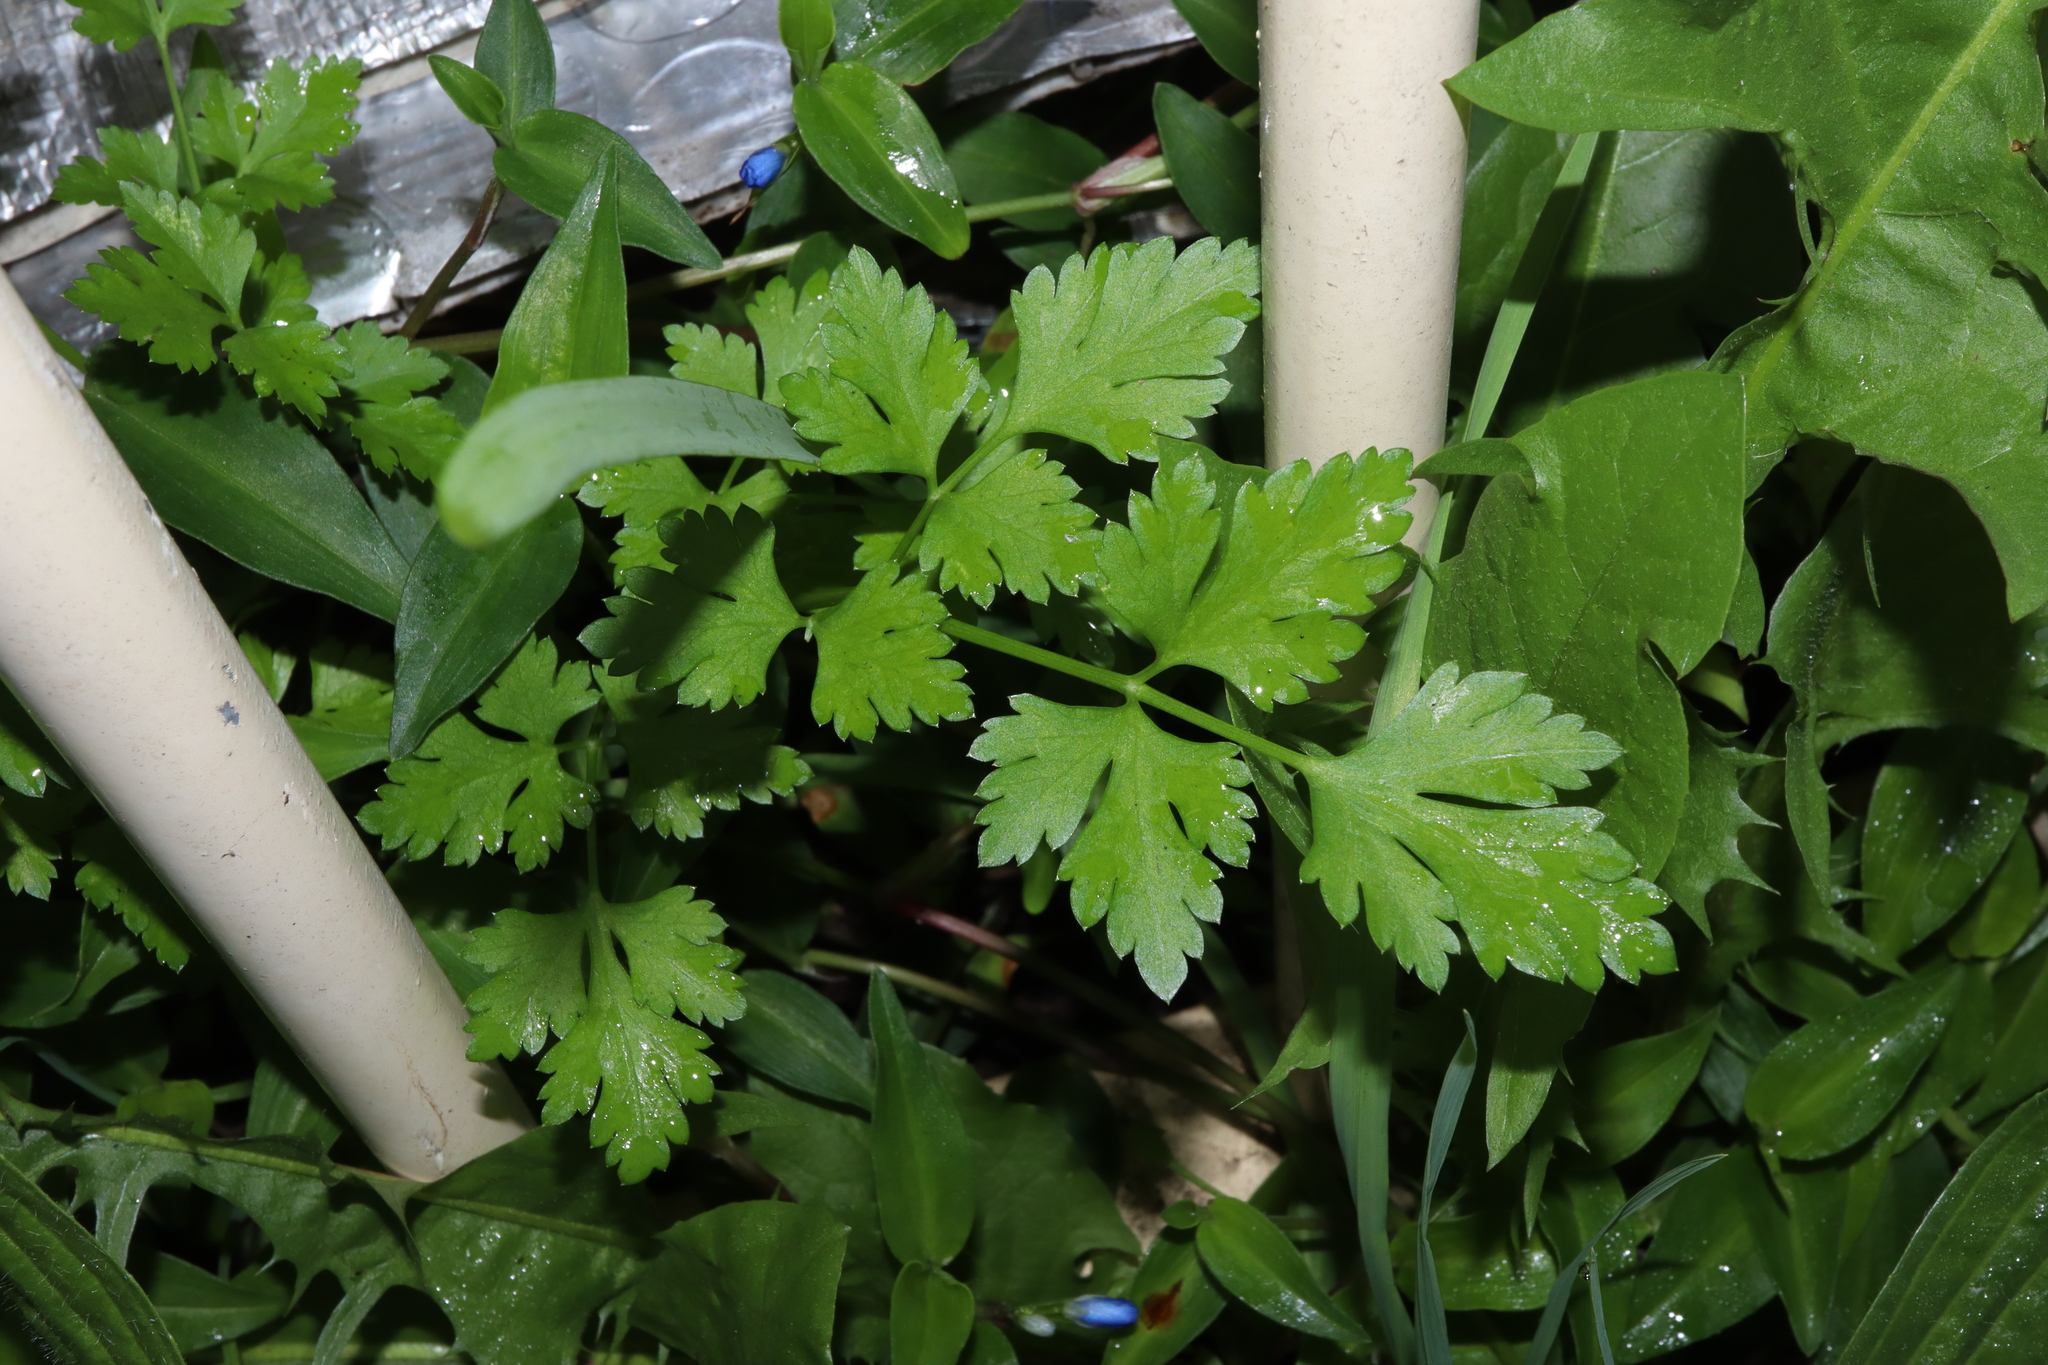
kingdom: Plantae
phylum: Tracheophyta
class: Magnoliopsida
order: Apiales
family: Apiaceae
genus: Petroselinum
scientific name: Petroselinum crispum
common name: Parsley
